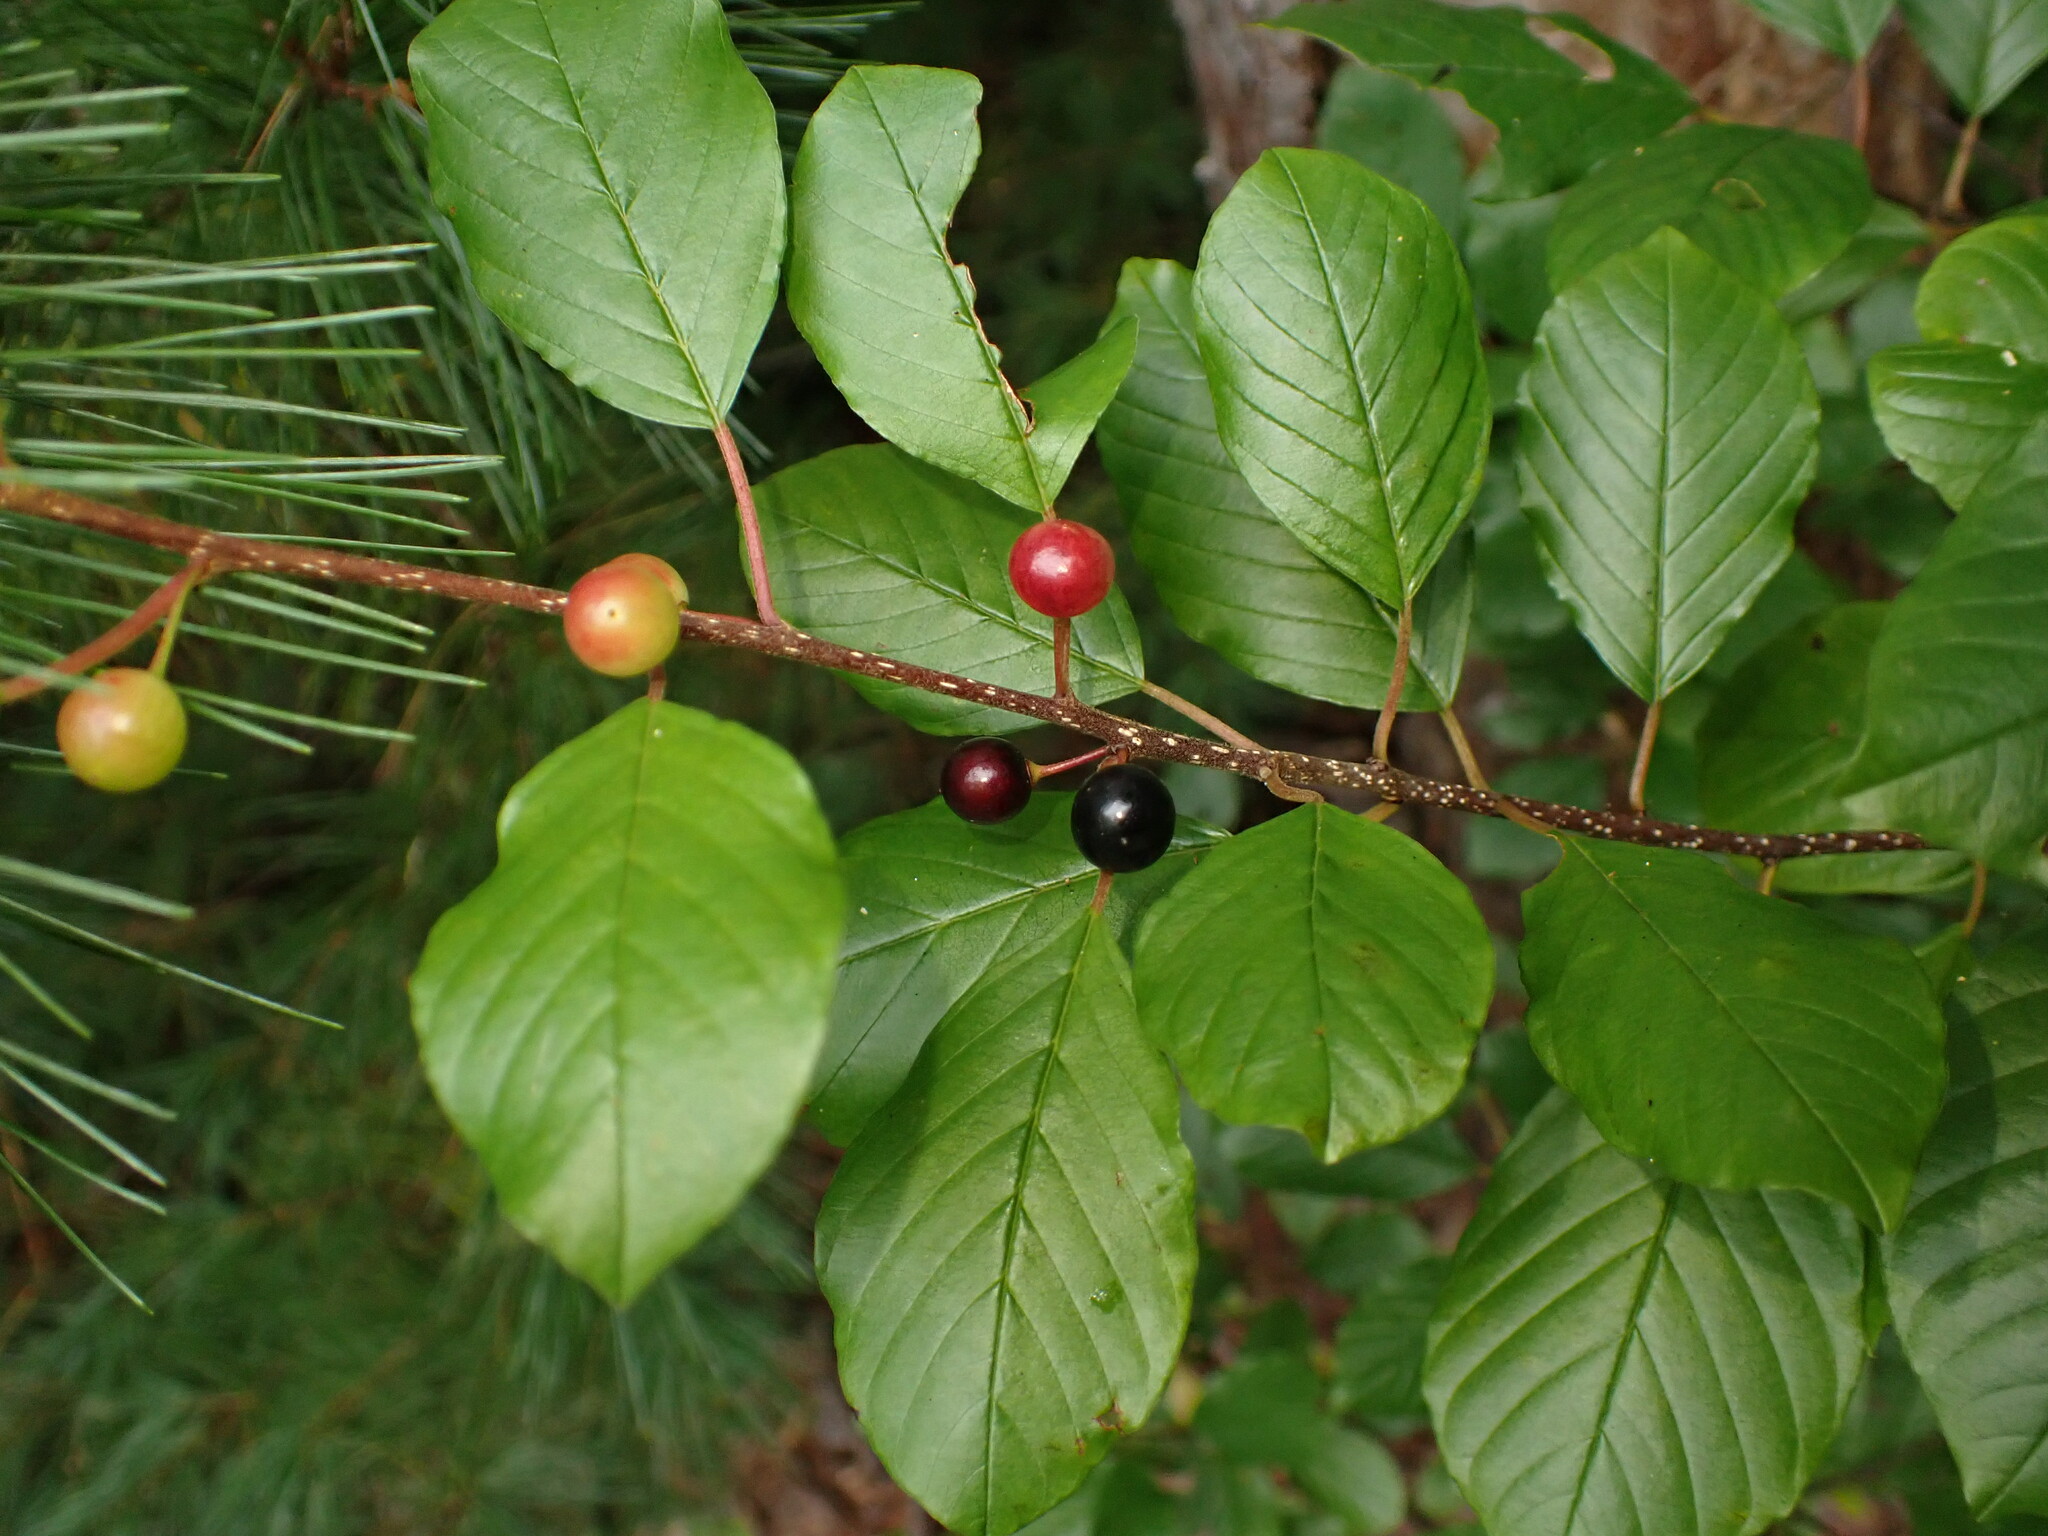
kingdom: Plantae
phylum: Tracheophyta
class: Magnoliopsida
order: Rosales
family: Rhamnaceae
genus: Frangula
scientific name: Frangula alnus
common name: Alder buckthorn
